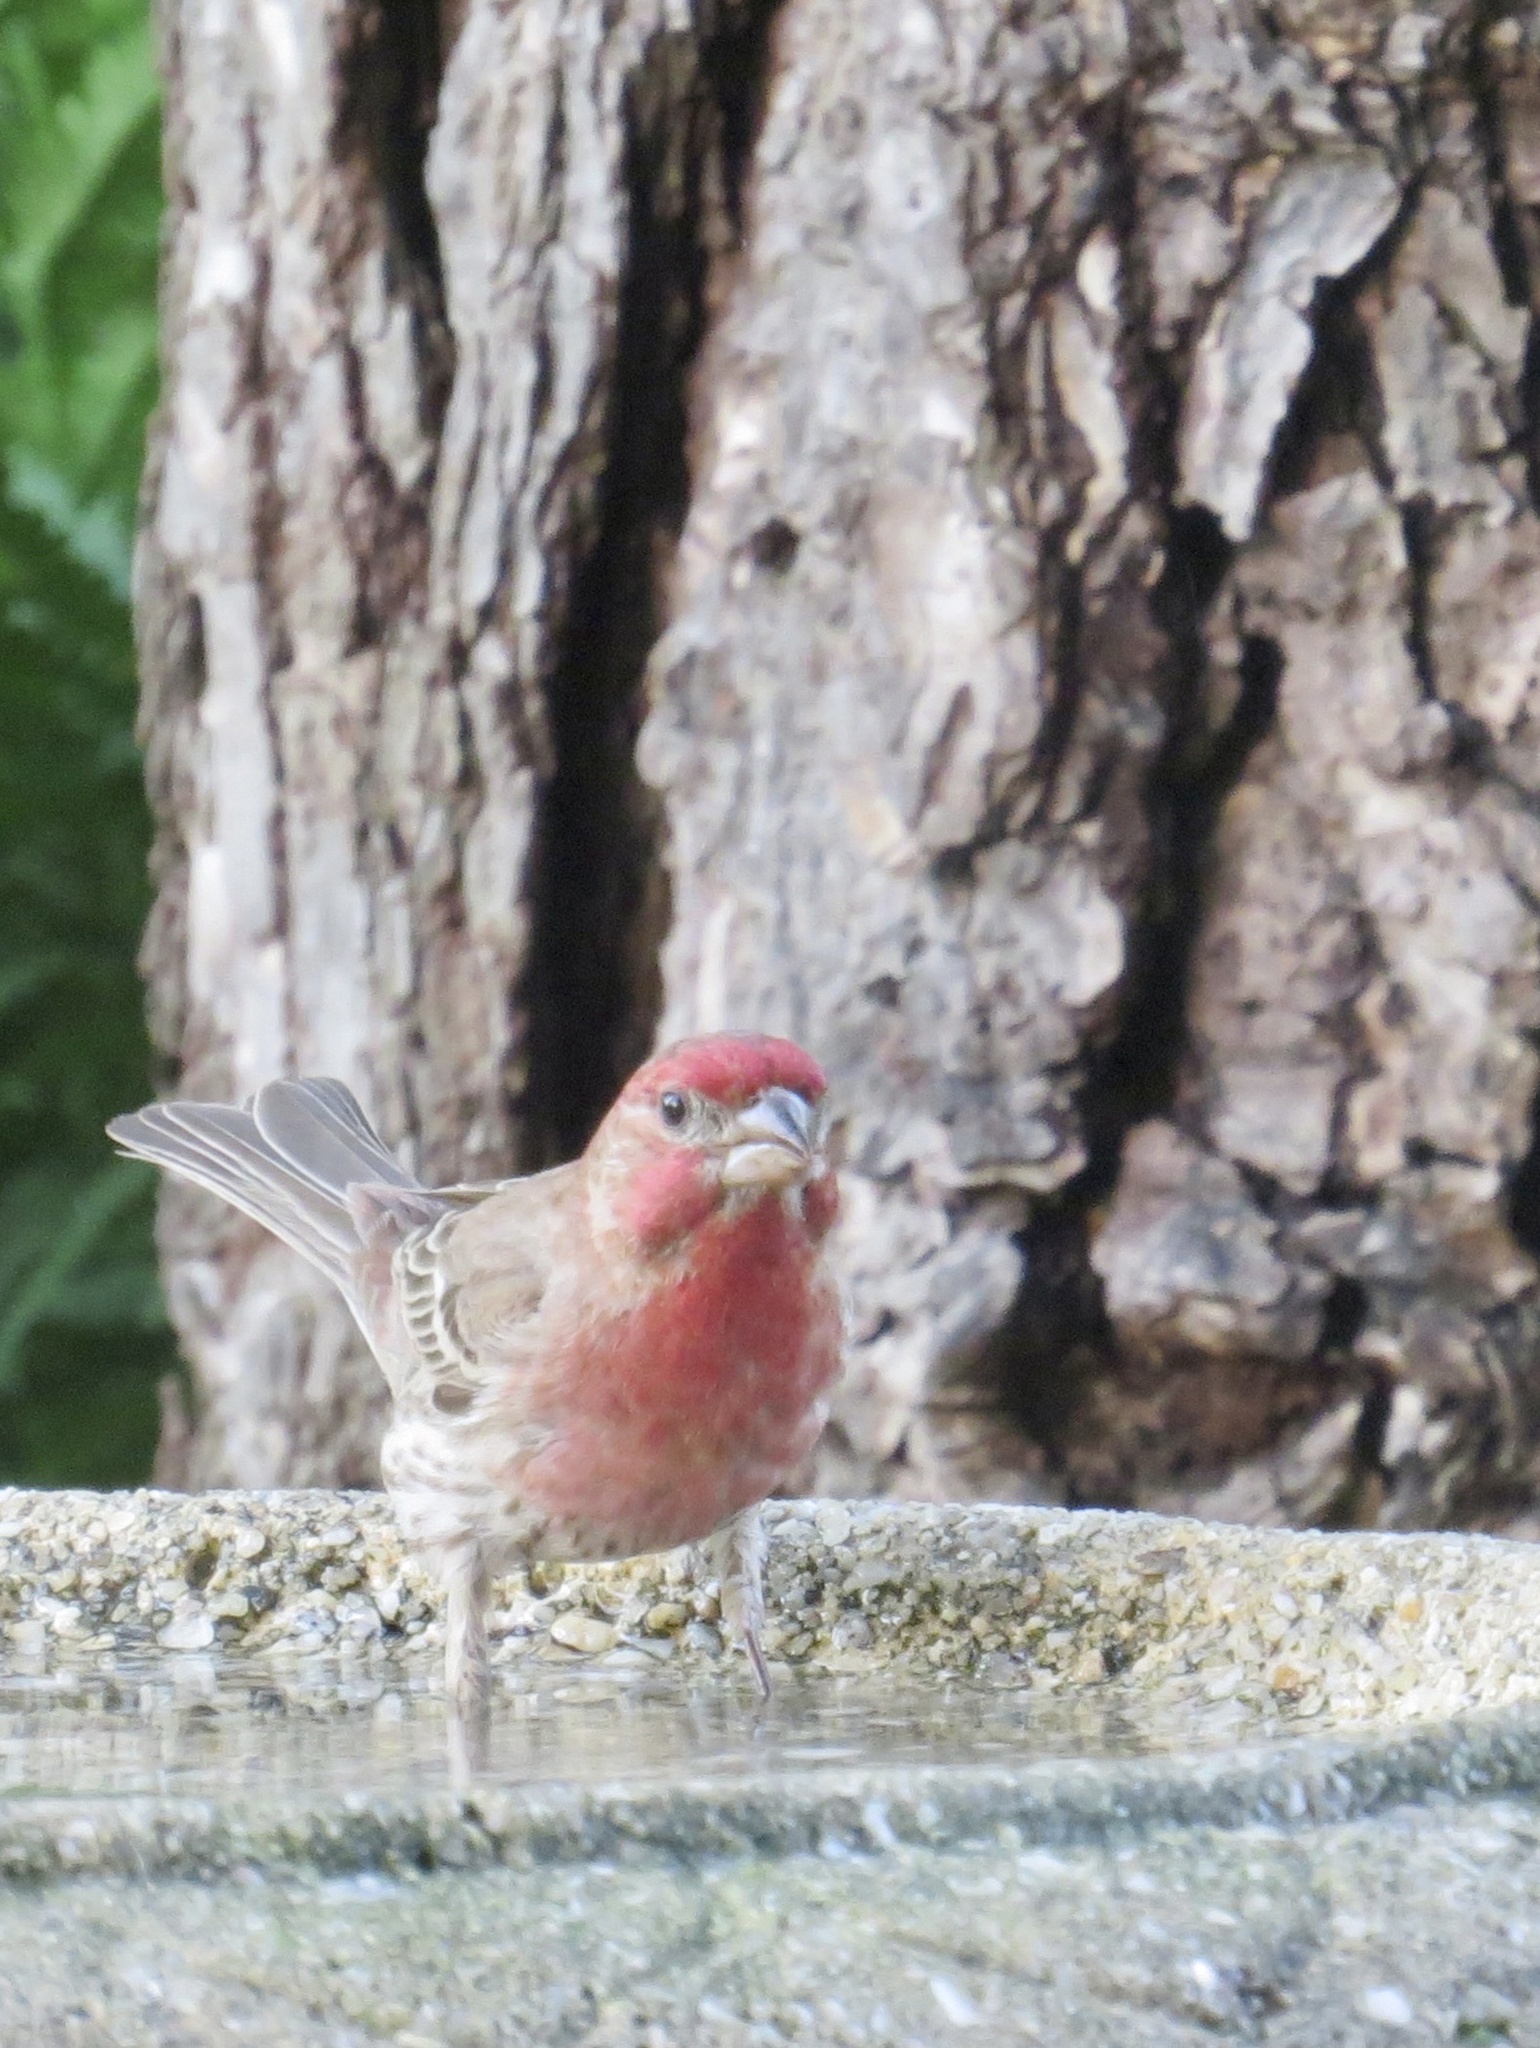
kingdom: Animalia
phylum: Chordata
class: Aves
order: Passeriformes
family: Fringillidae
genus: Haemorhous
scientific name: Haemorhous mexicanus
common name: House finch
